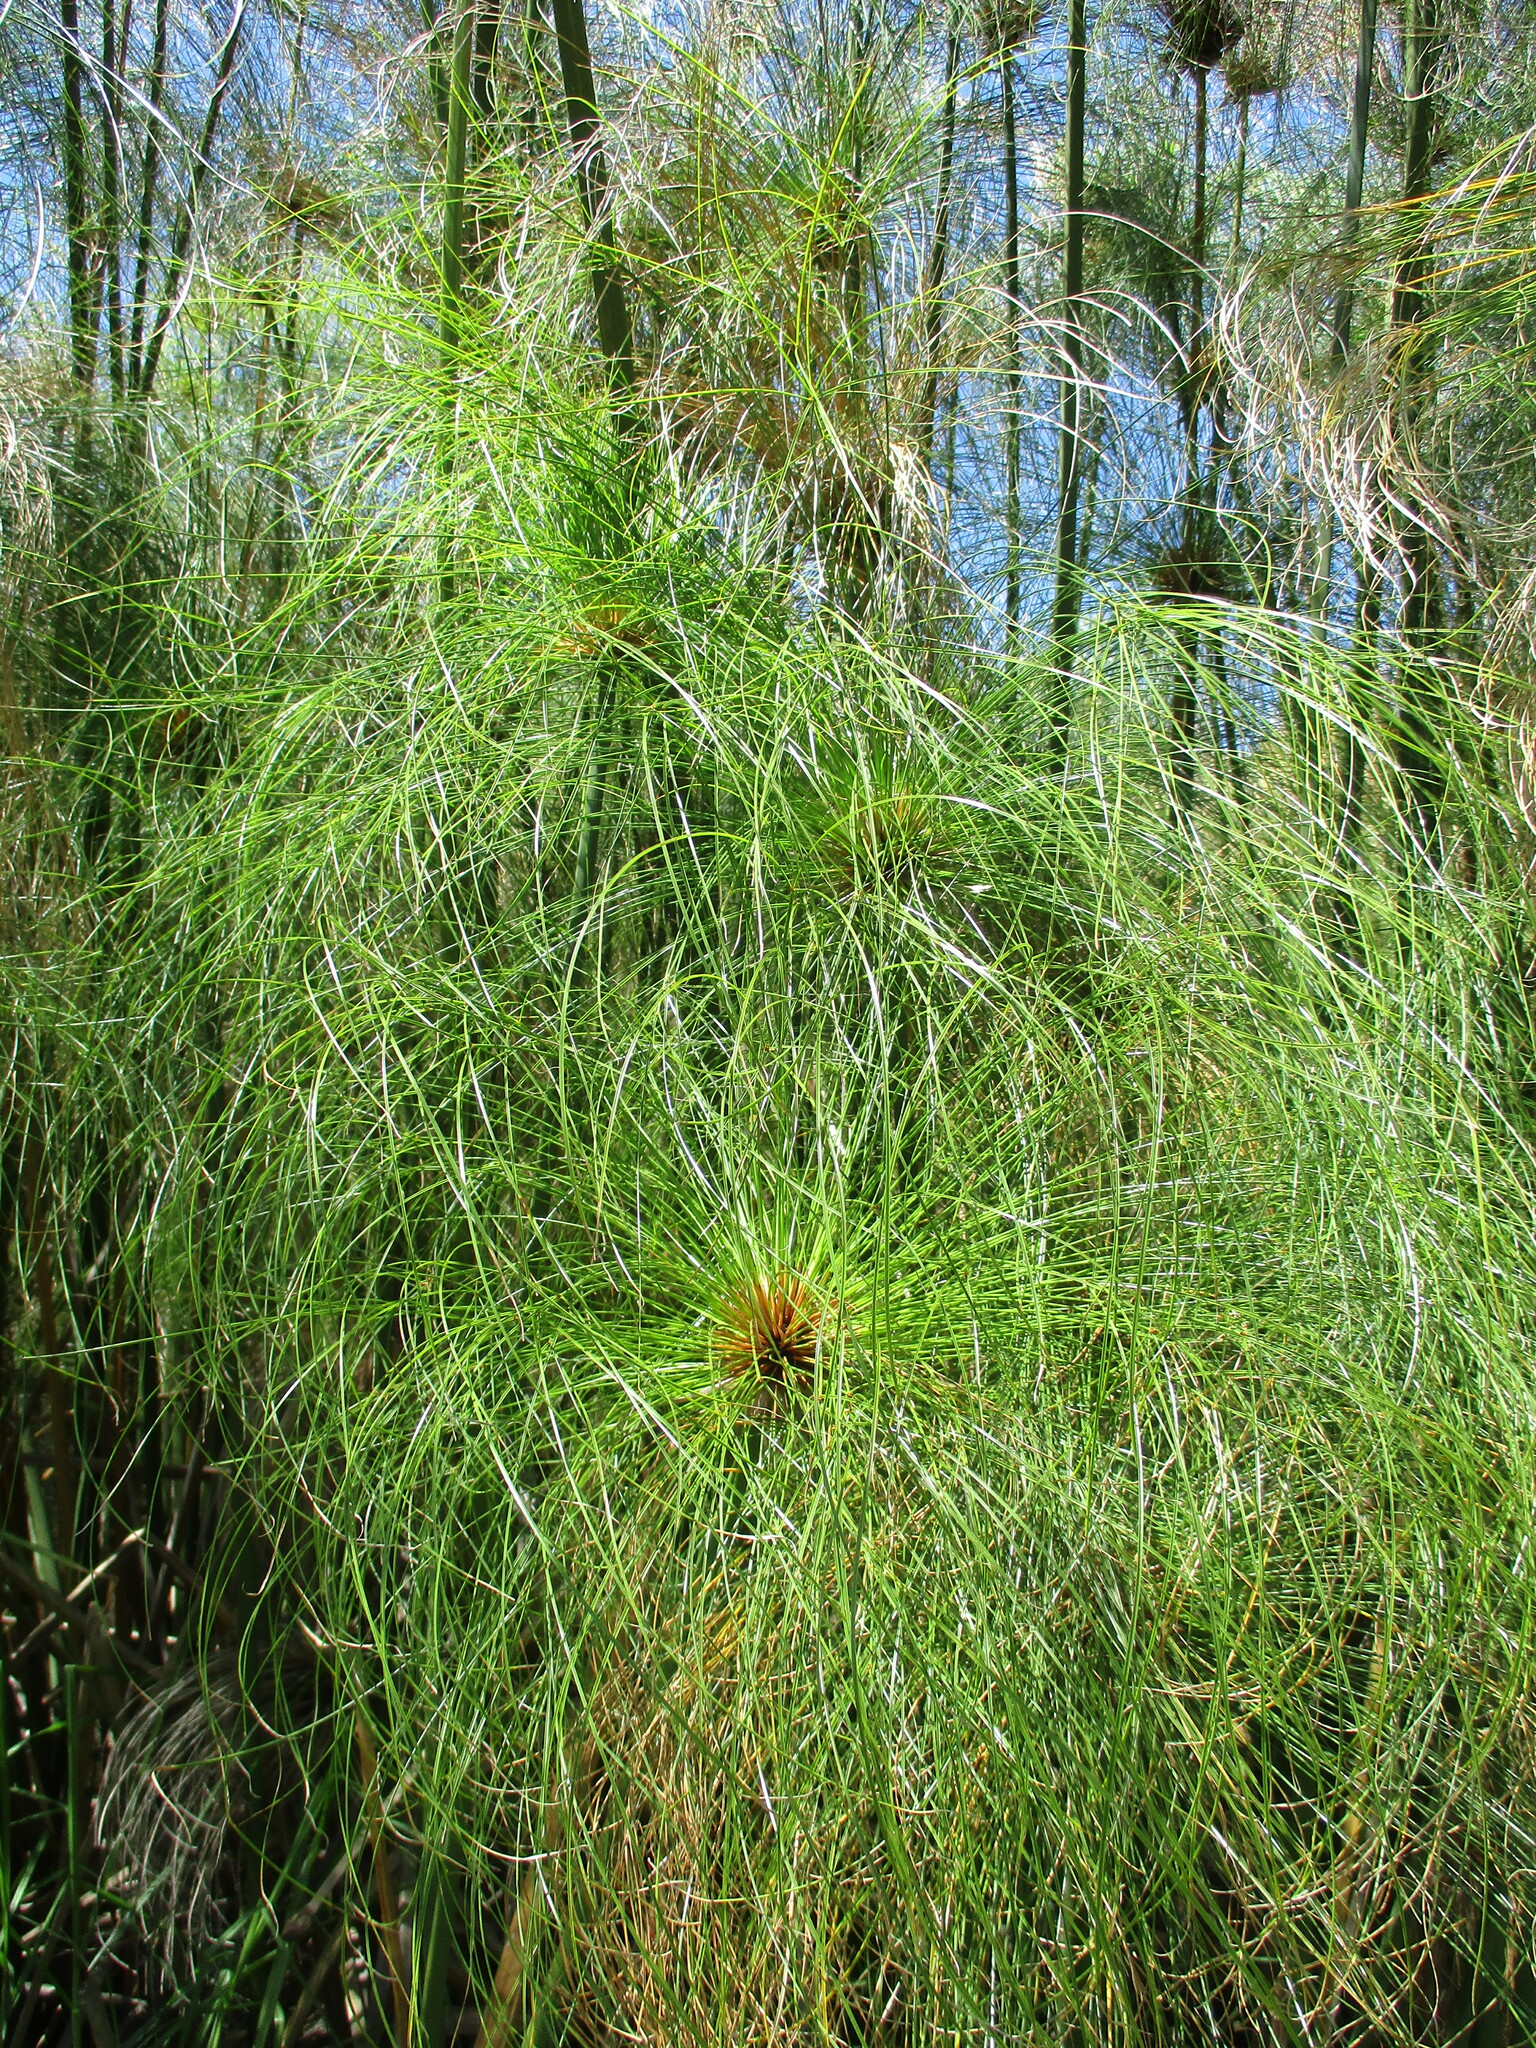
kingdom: Plantae
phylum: Tracheophyta
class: Liliopsida
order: Poales
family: Cyperaceae
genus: Cyperus
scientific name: Cyperus papyrus
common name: Papyrus
